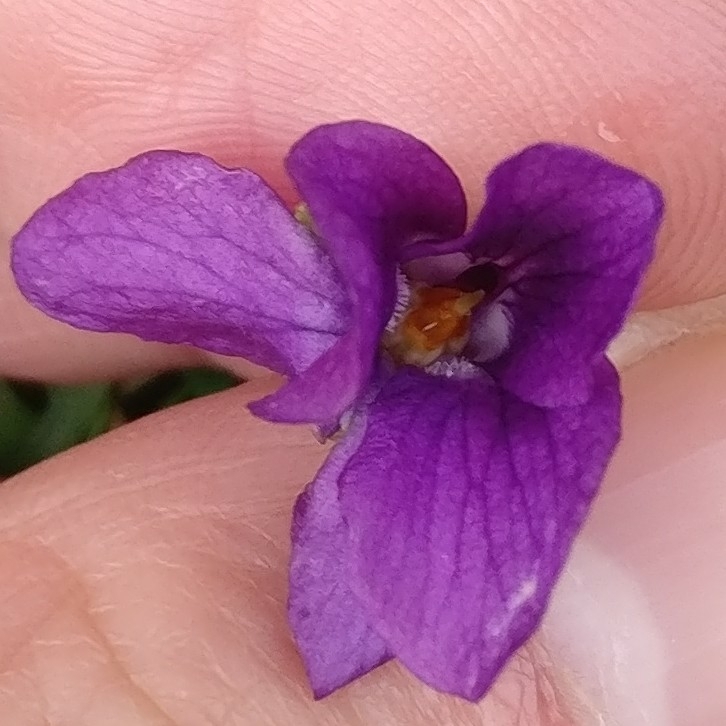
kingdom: Plantae
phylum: Tracheophyta
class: Magnoliopsida
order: Malpighiales
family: Violaceae
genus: Viola
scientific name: Viola odorata
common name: Sweet violet
